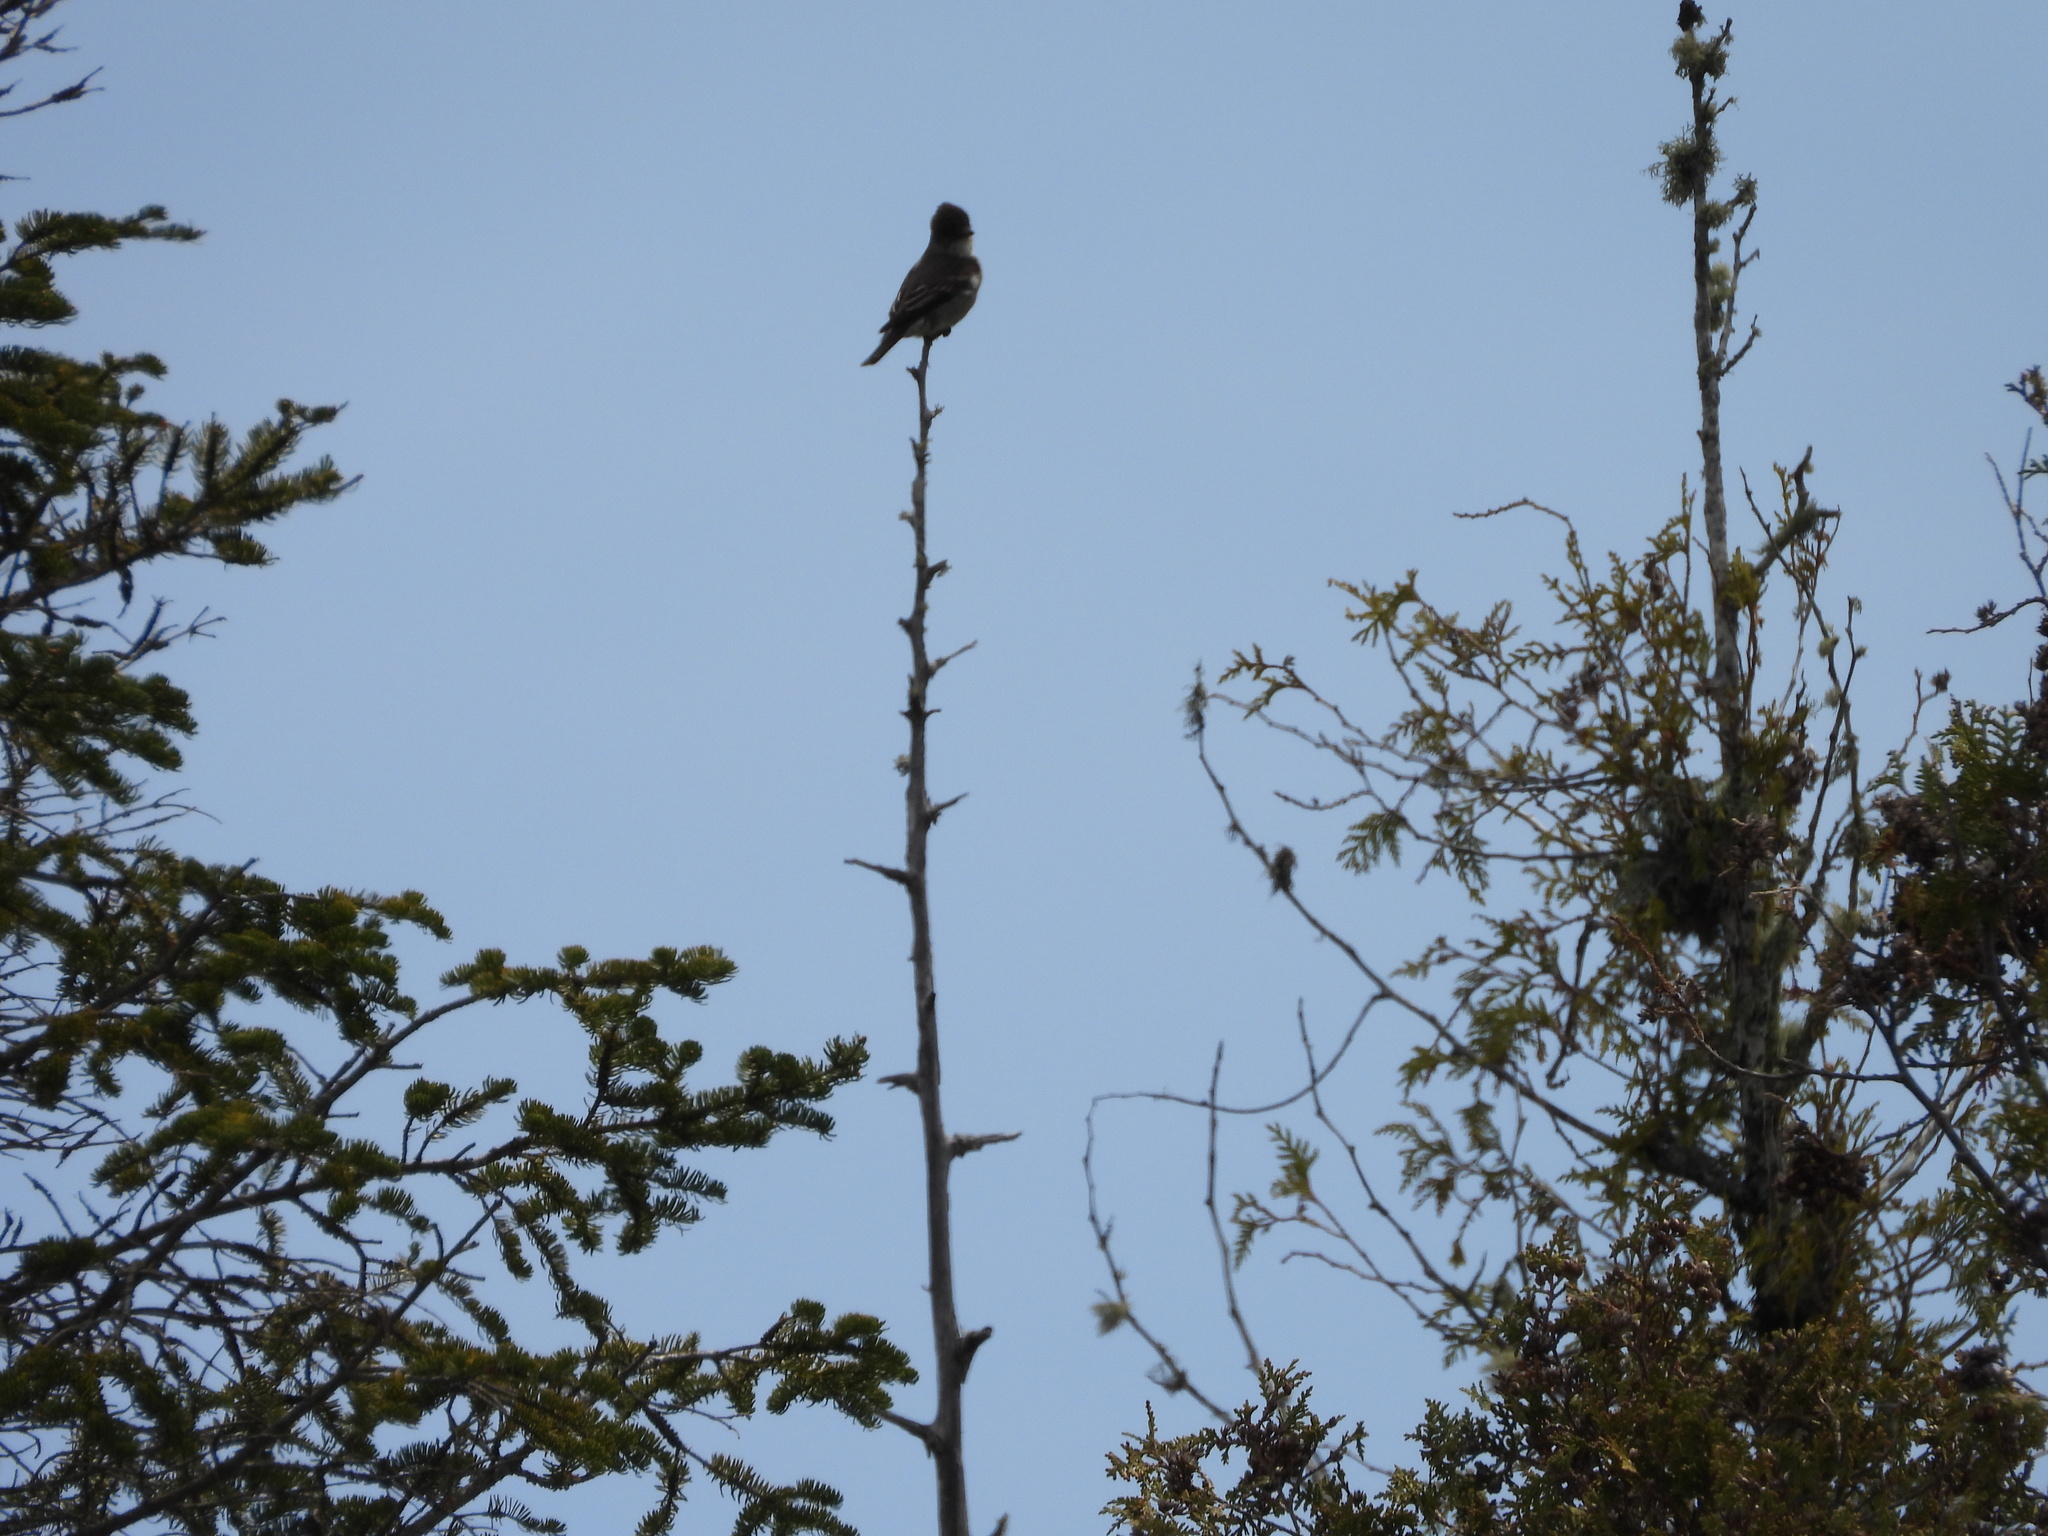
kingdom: Animalia
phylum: Chordata
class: Aves
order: Passeriformes
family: Tyrannidae
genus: Contopus
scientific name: Contopus cooperi
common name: Olive-sided flycatcher
